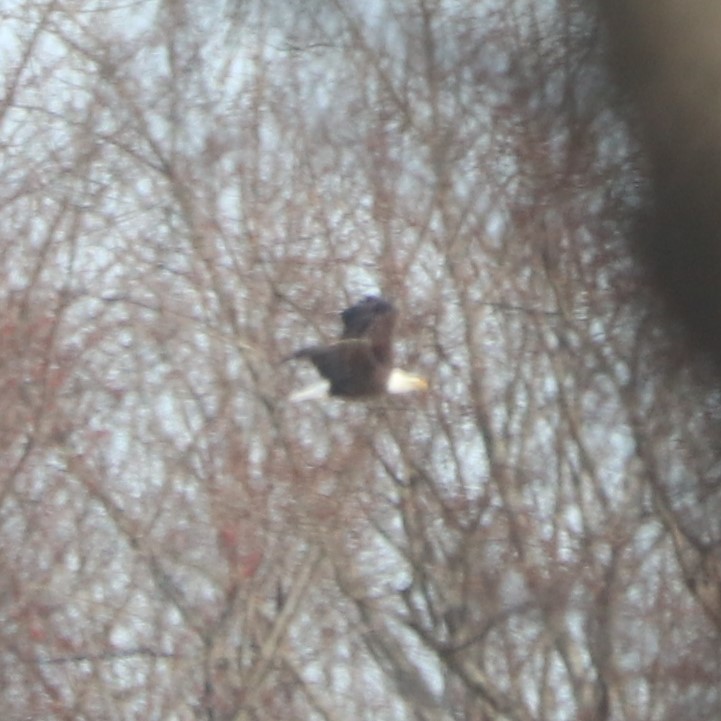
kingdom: Animalia
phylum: Chordata
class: Aves
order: Accipitriformes
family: Accipitridae
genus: Haliaeetus
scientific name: Haliaeetus leucocephalus
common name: Bald eagle
